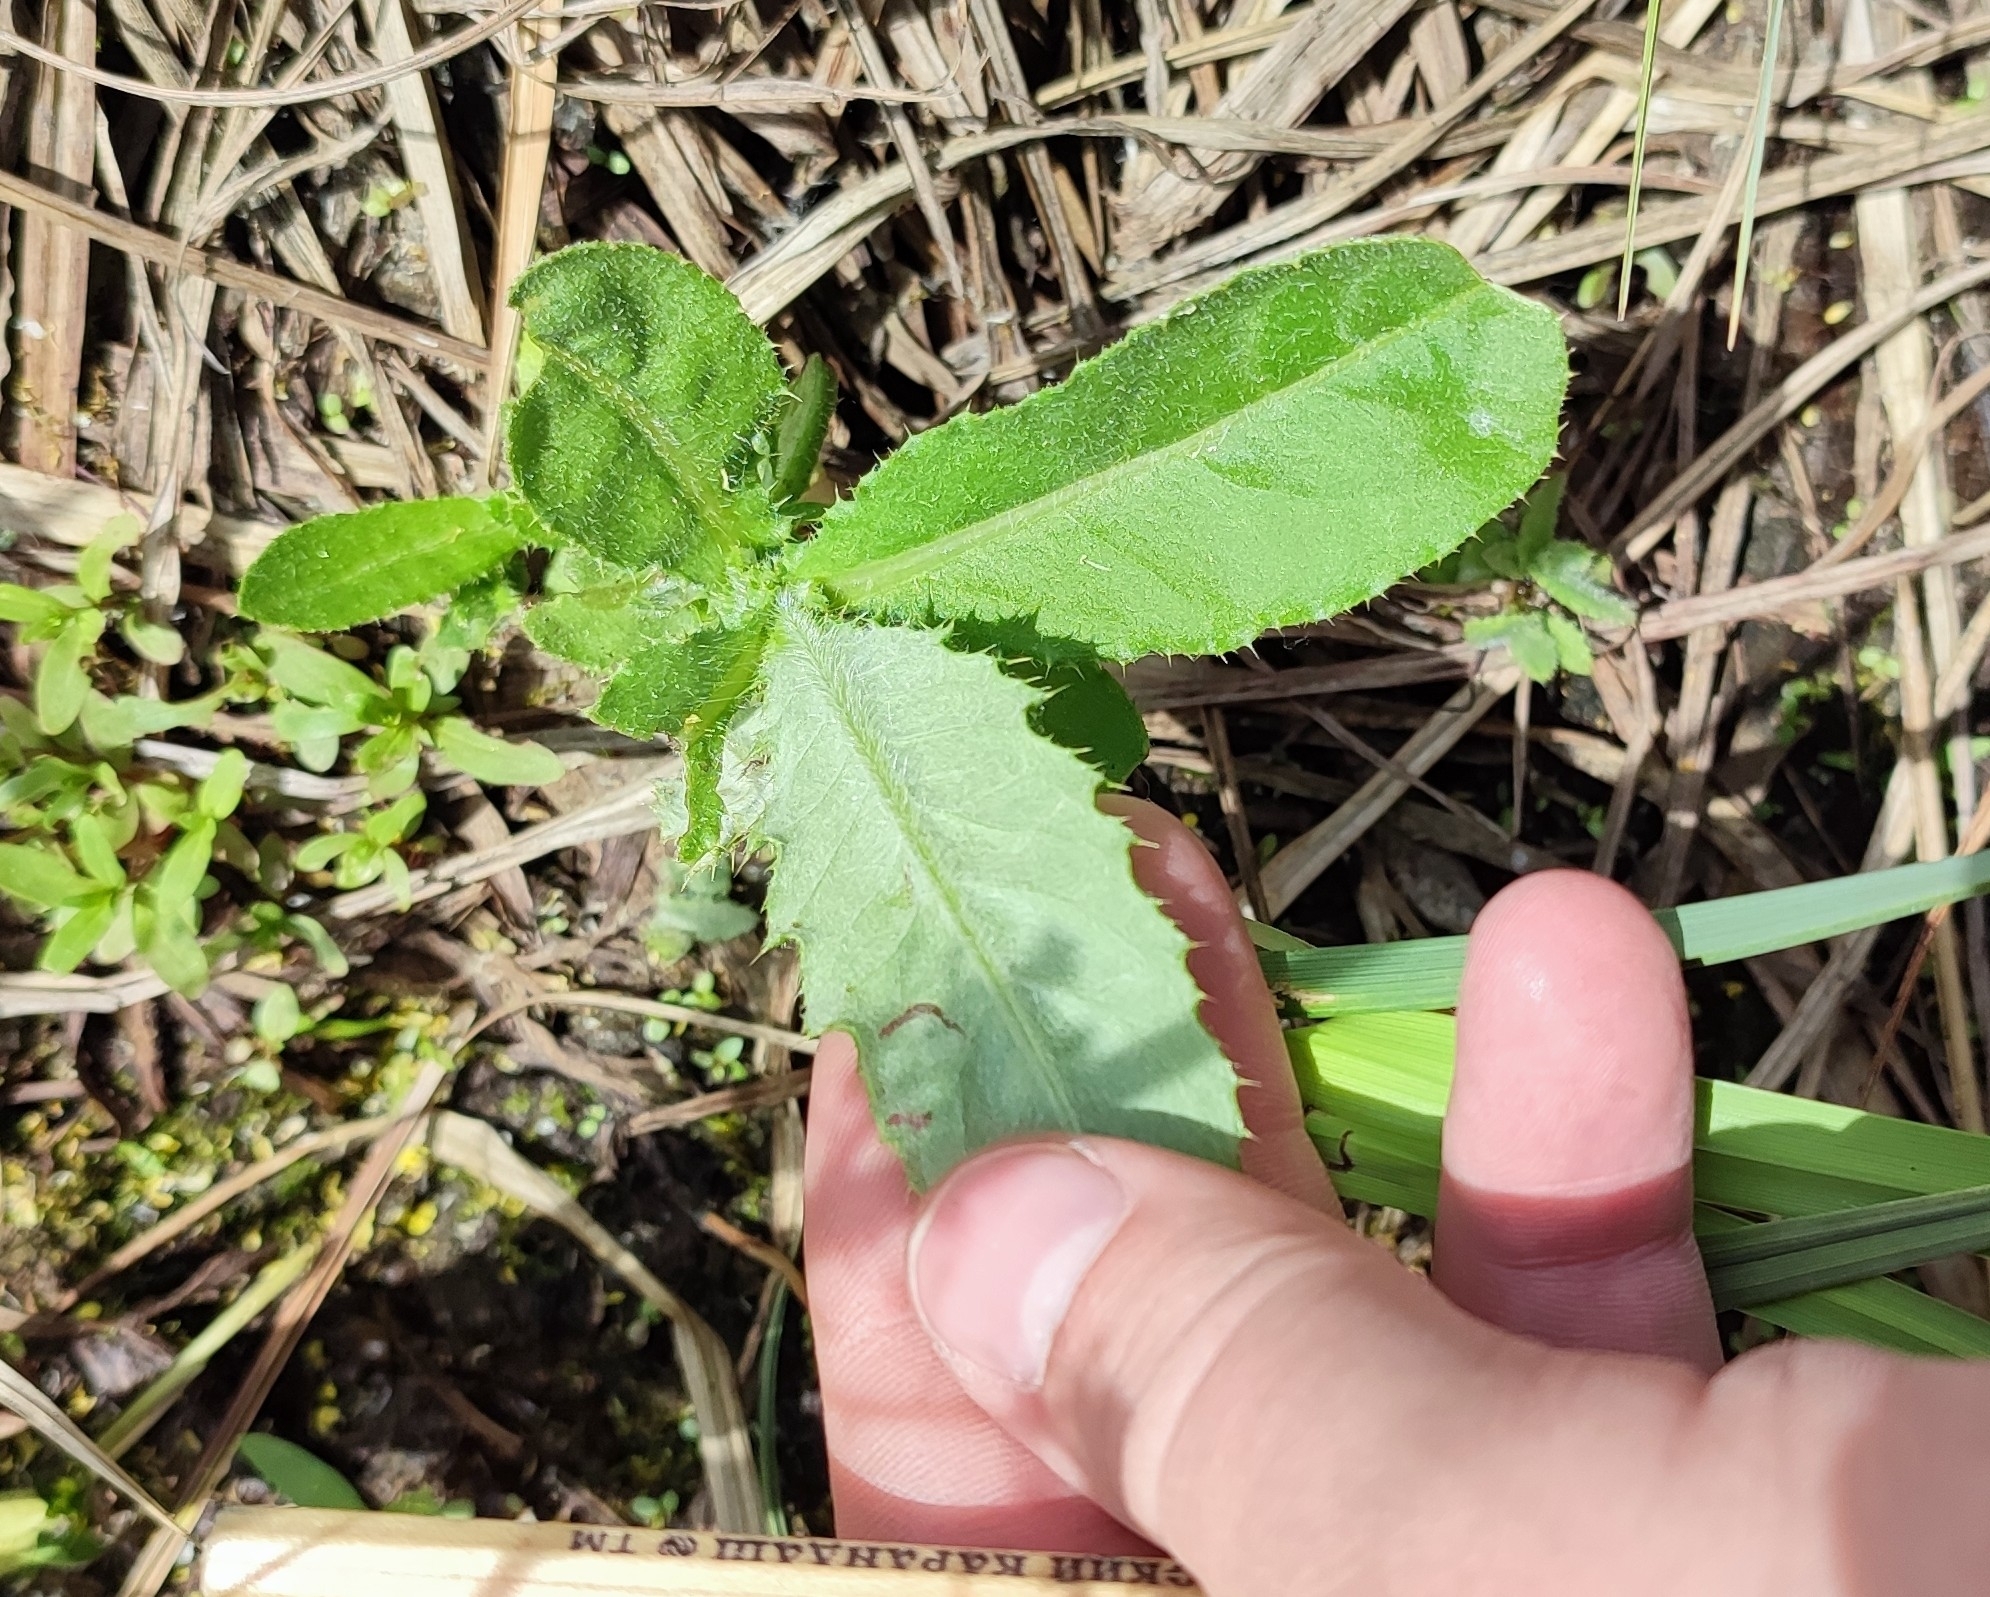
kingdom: Plantae
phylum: Tracheophyta
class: Magnoliopsida
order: Asterales
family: Asteraceae
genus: Cirsium
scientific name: Cirsium arvense
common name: Creeping thistle
